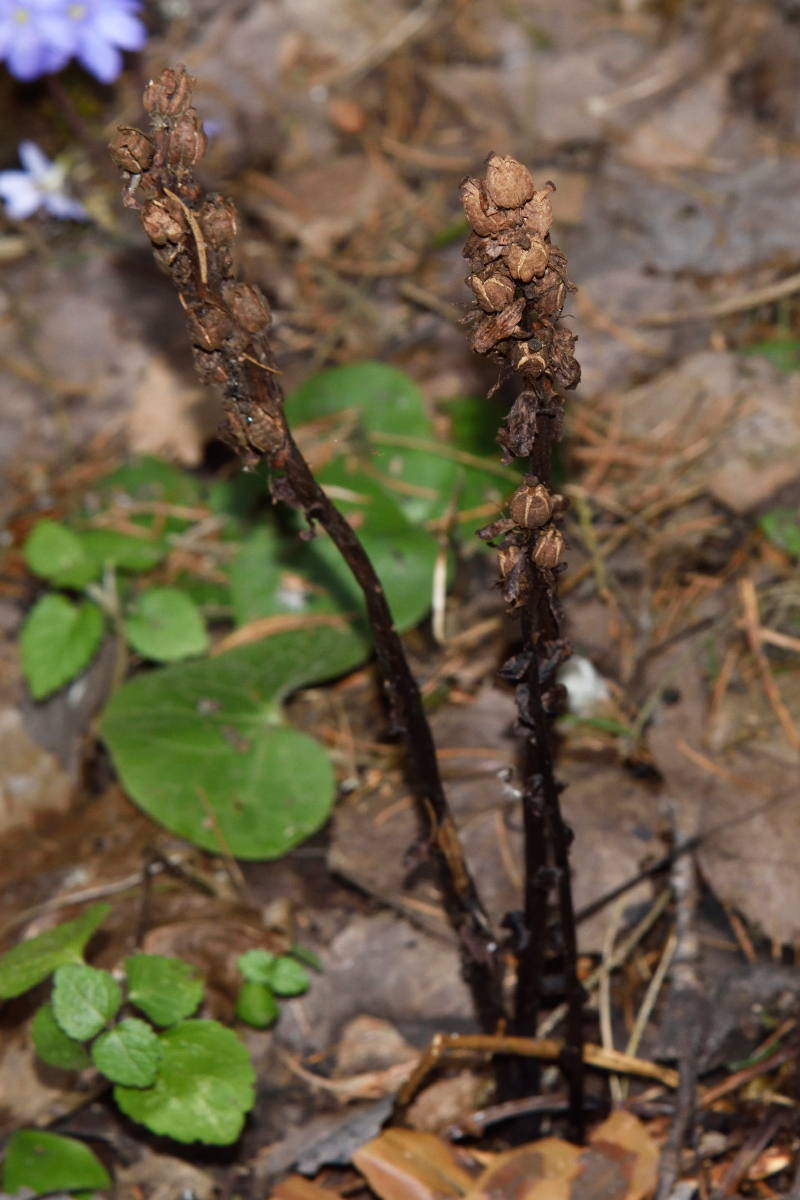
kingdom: Plantae
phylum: Tracheophyta
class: Magnoliopsida
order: Ericales
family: Ericaceae
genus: Hypopitys
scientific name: Hypopitys monotropa
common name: Yellow bird's-nest
